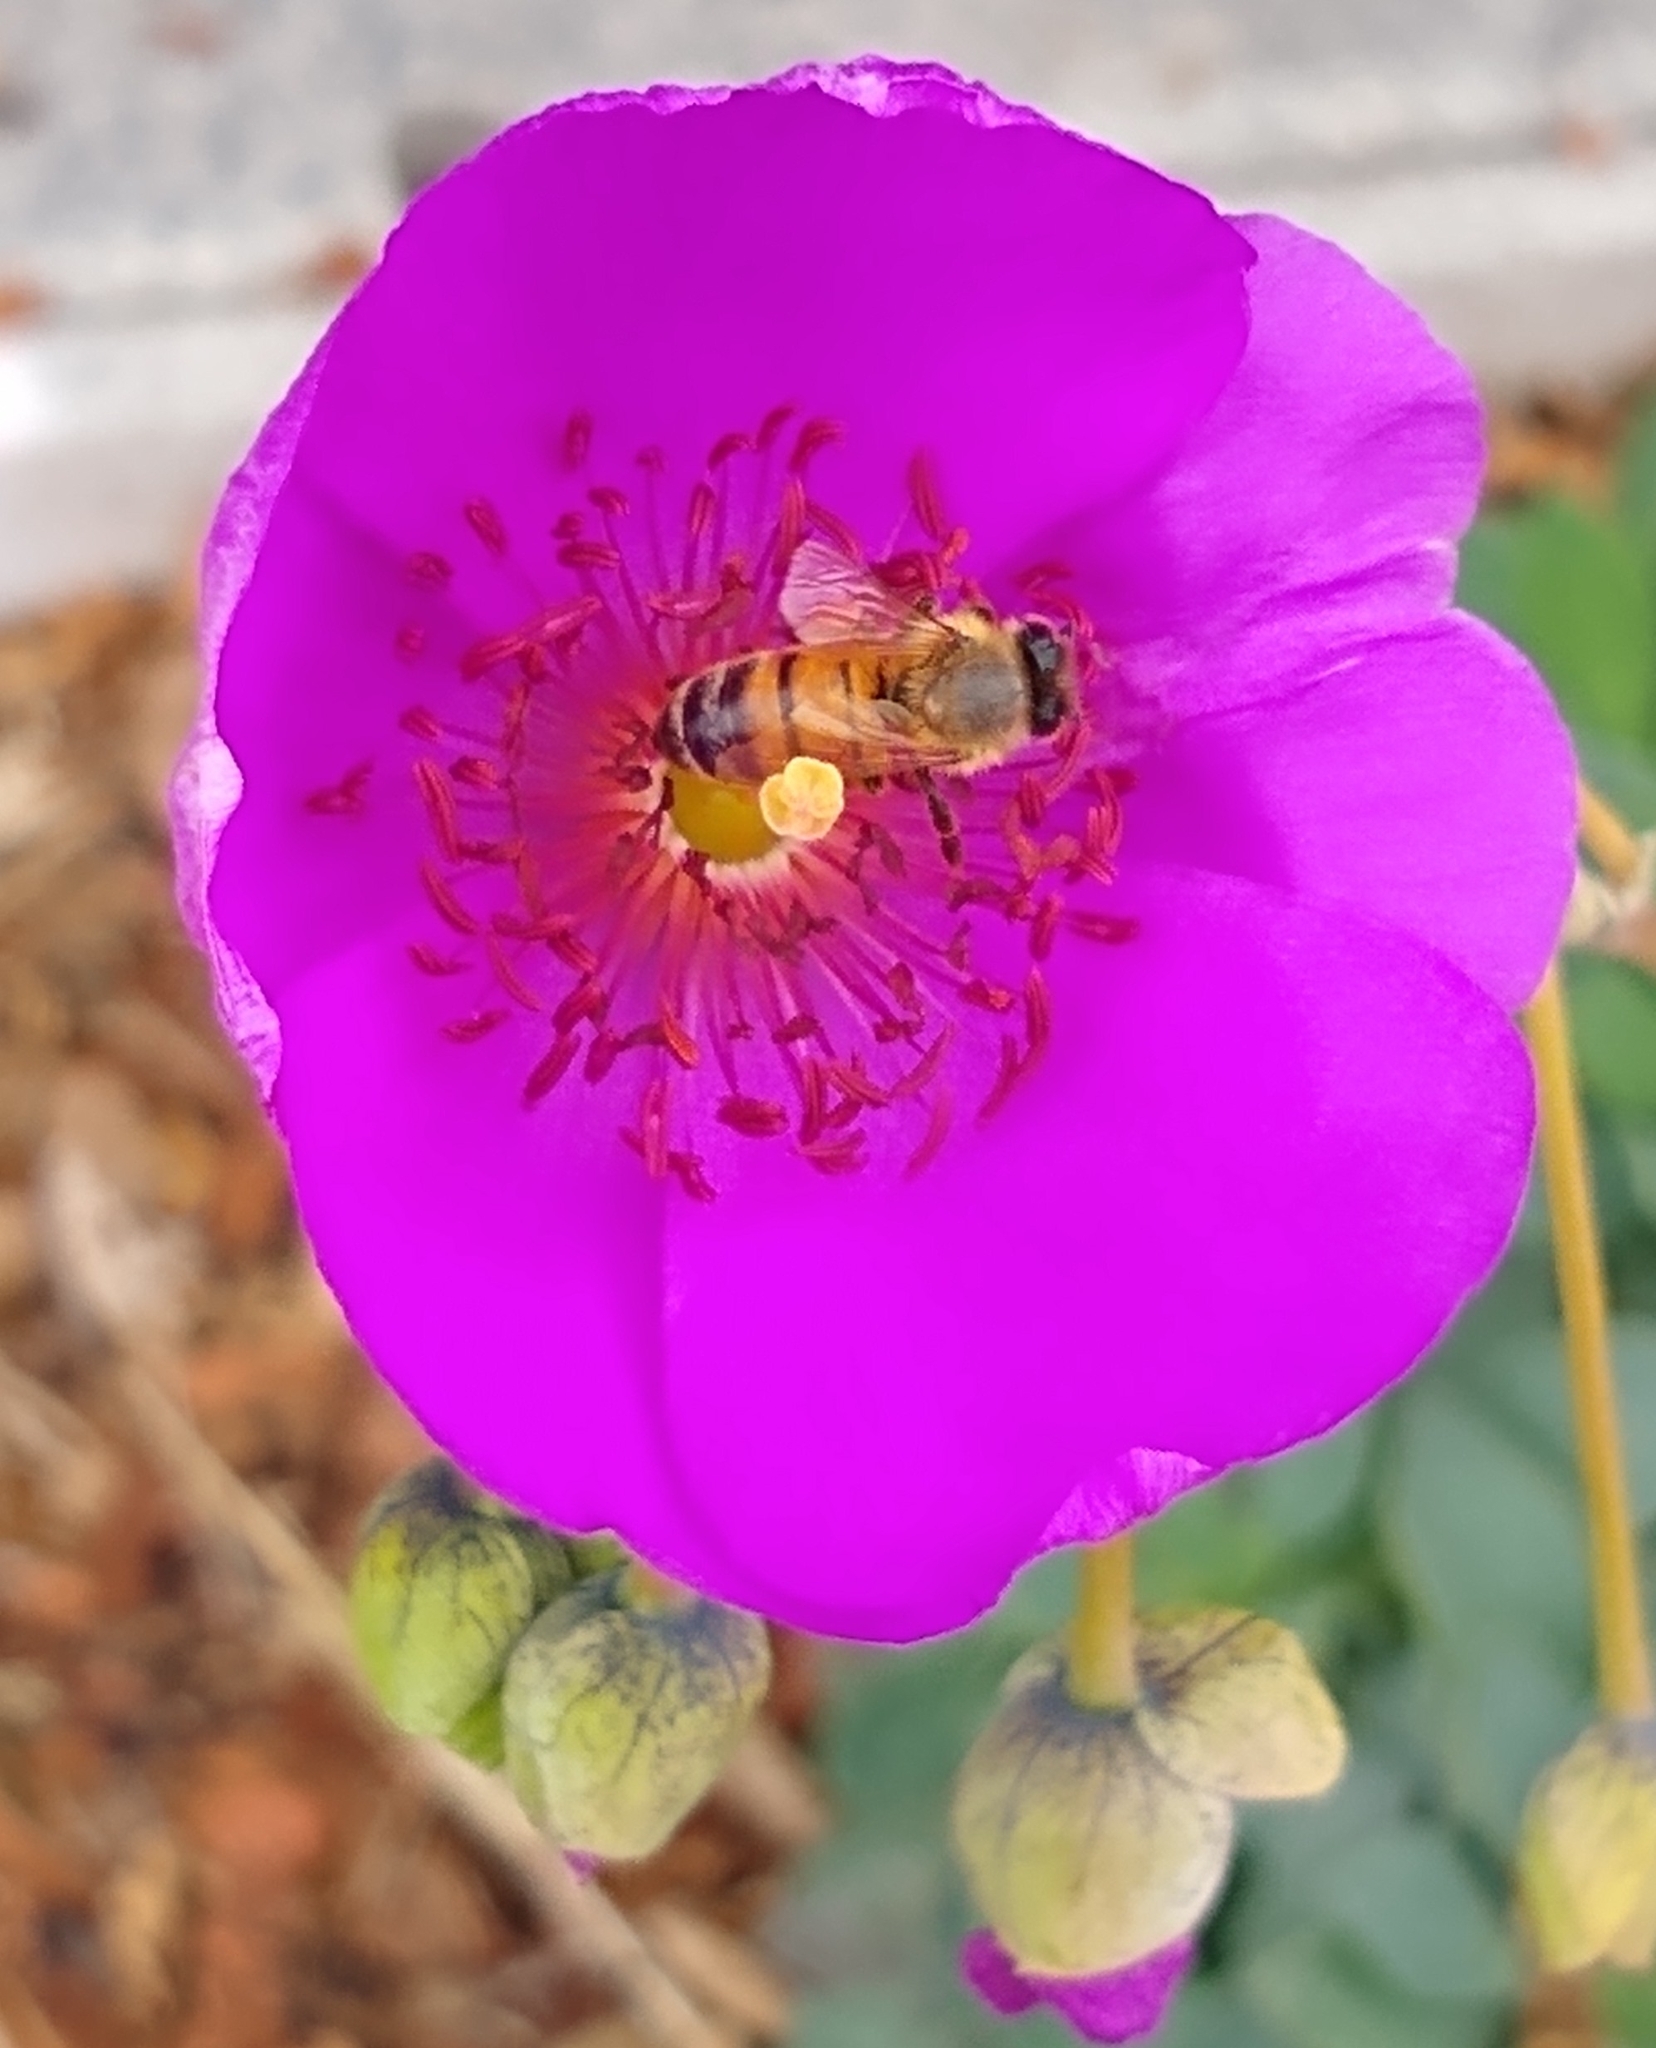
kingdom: Animalia
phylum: Arthropoda
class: Insecta
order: Hymenoptera
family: Apidae
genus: Apis
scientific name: Apis mellifera
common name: Honey bee
